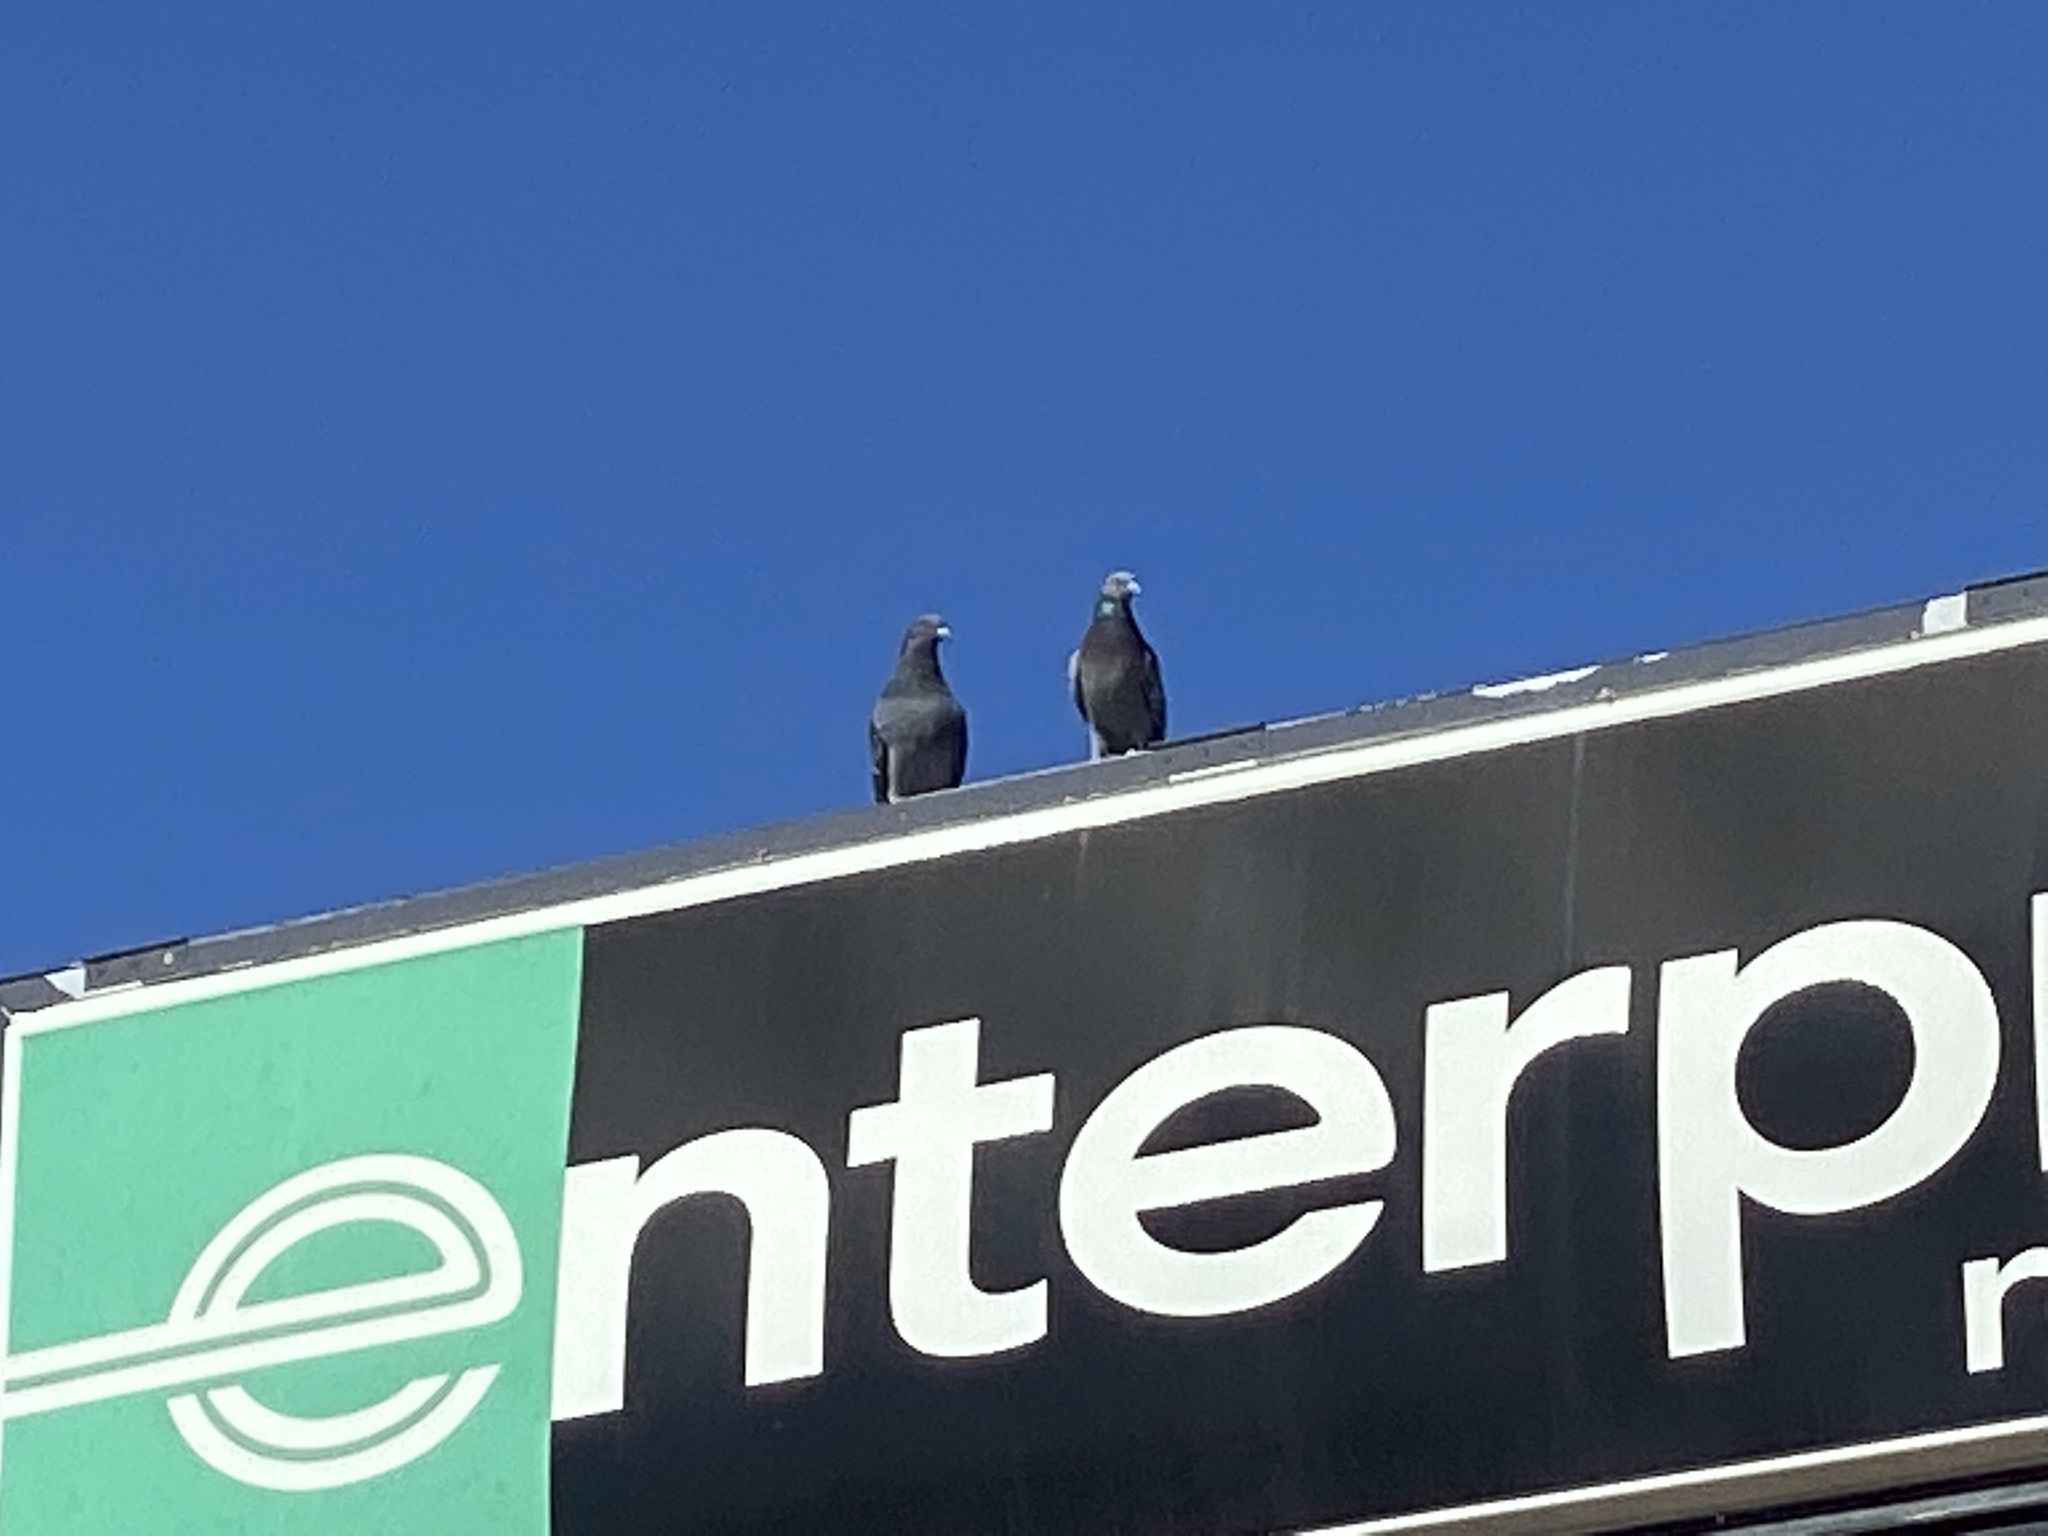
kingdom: Animalia
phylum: Chordata
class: Aves
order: Columbiformes
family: Columbidae
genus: Columba
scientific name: Columba livia
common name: Rock pigeon
